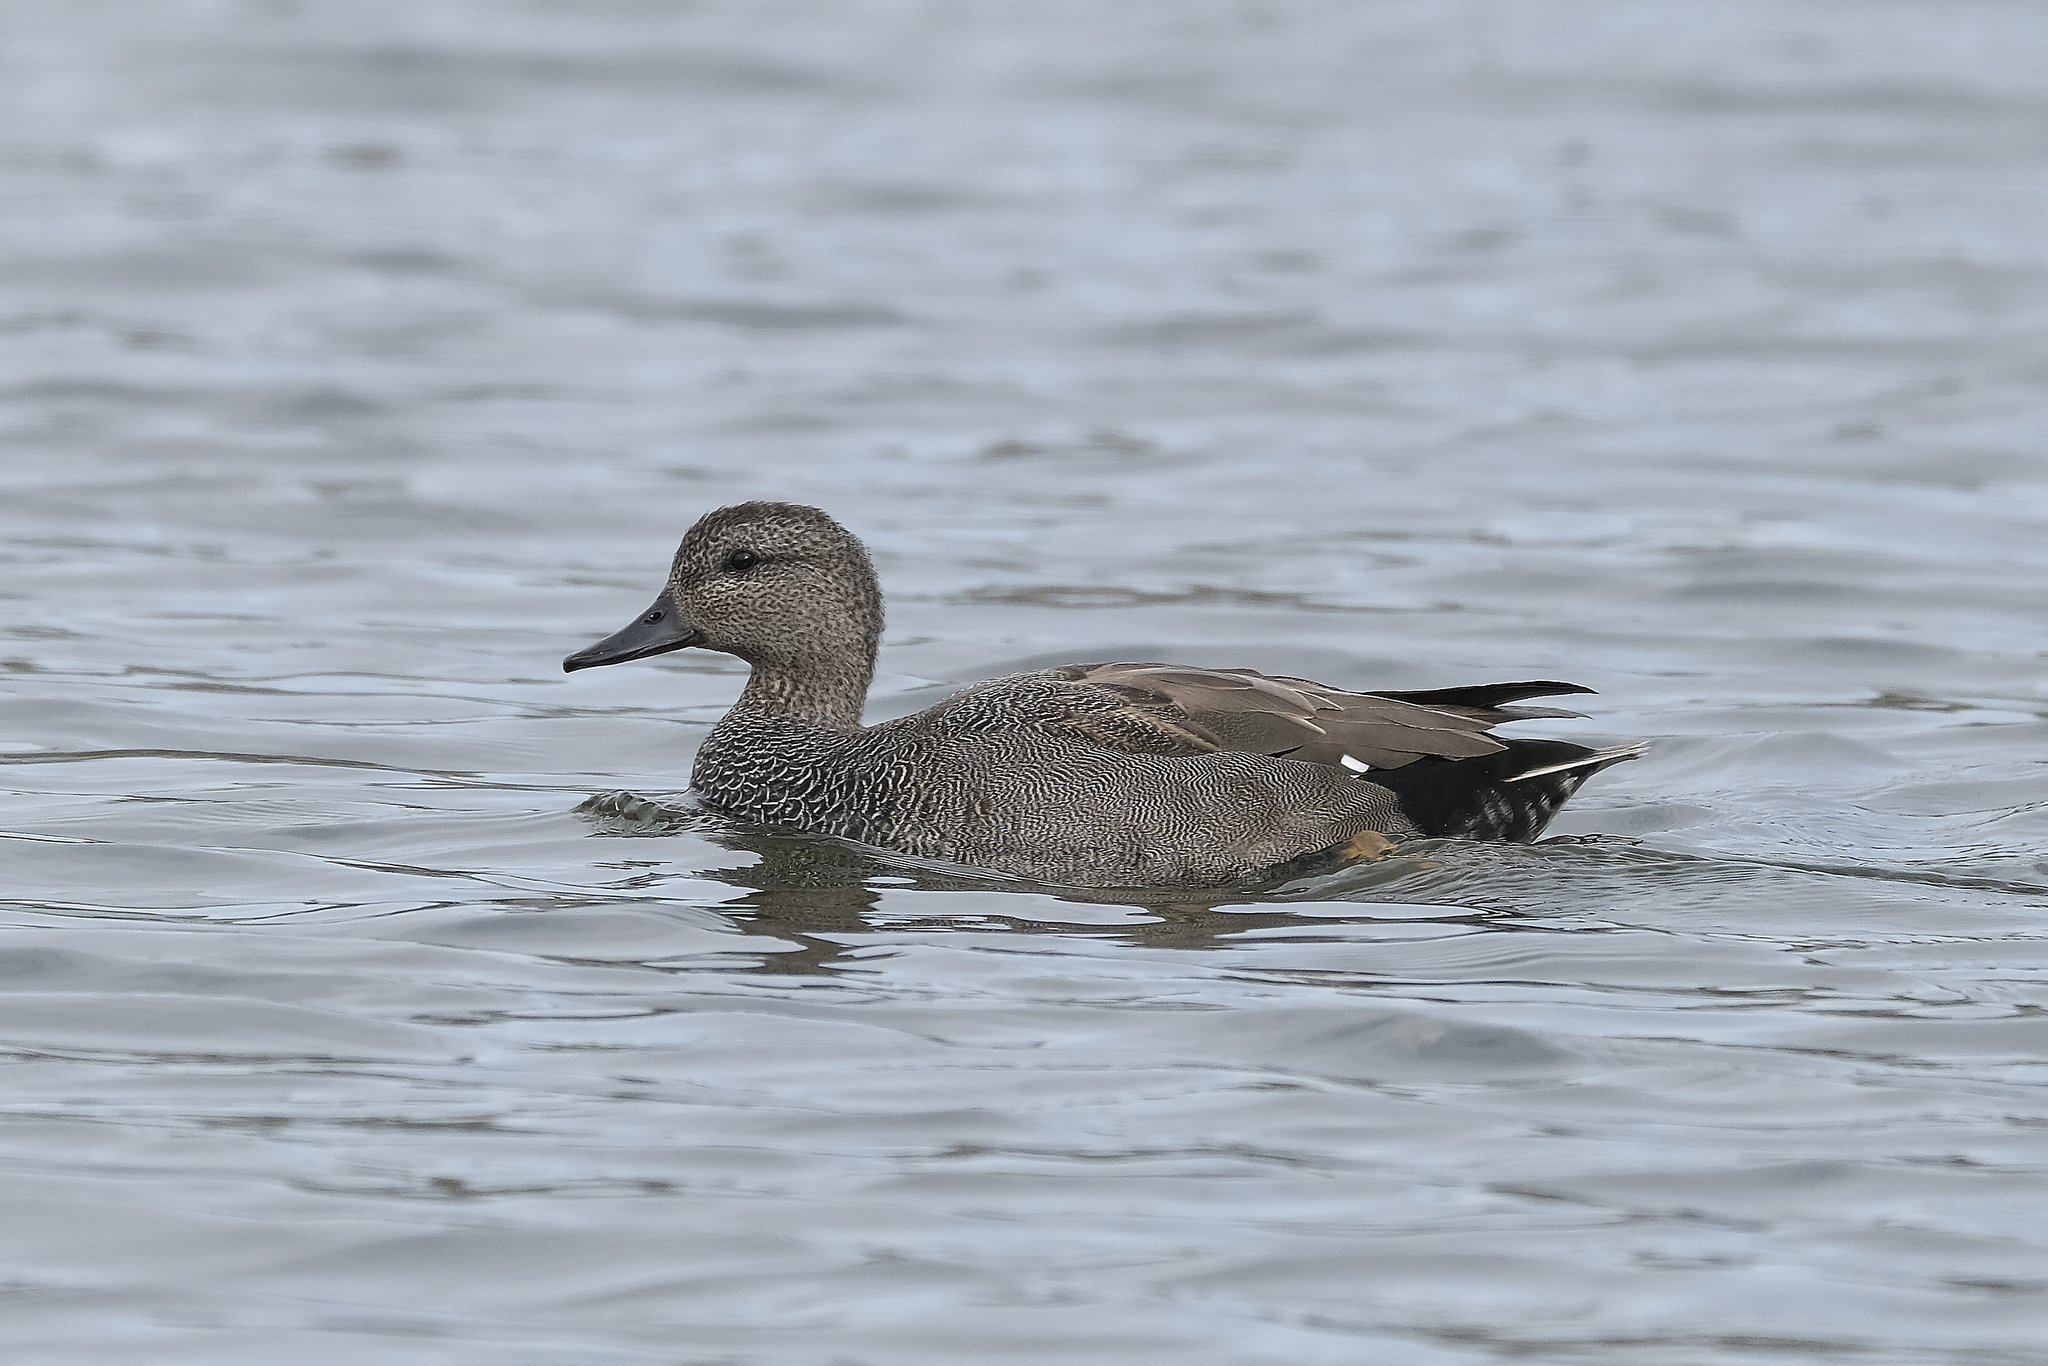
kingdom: Animalia
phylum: Chordata
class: Aves
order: Anseriformes
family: Anatidae
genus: Mareca
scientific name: Mareca strepera
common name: Gadwall
